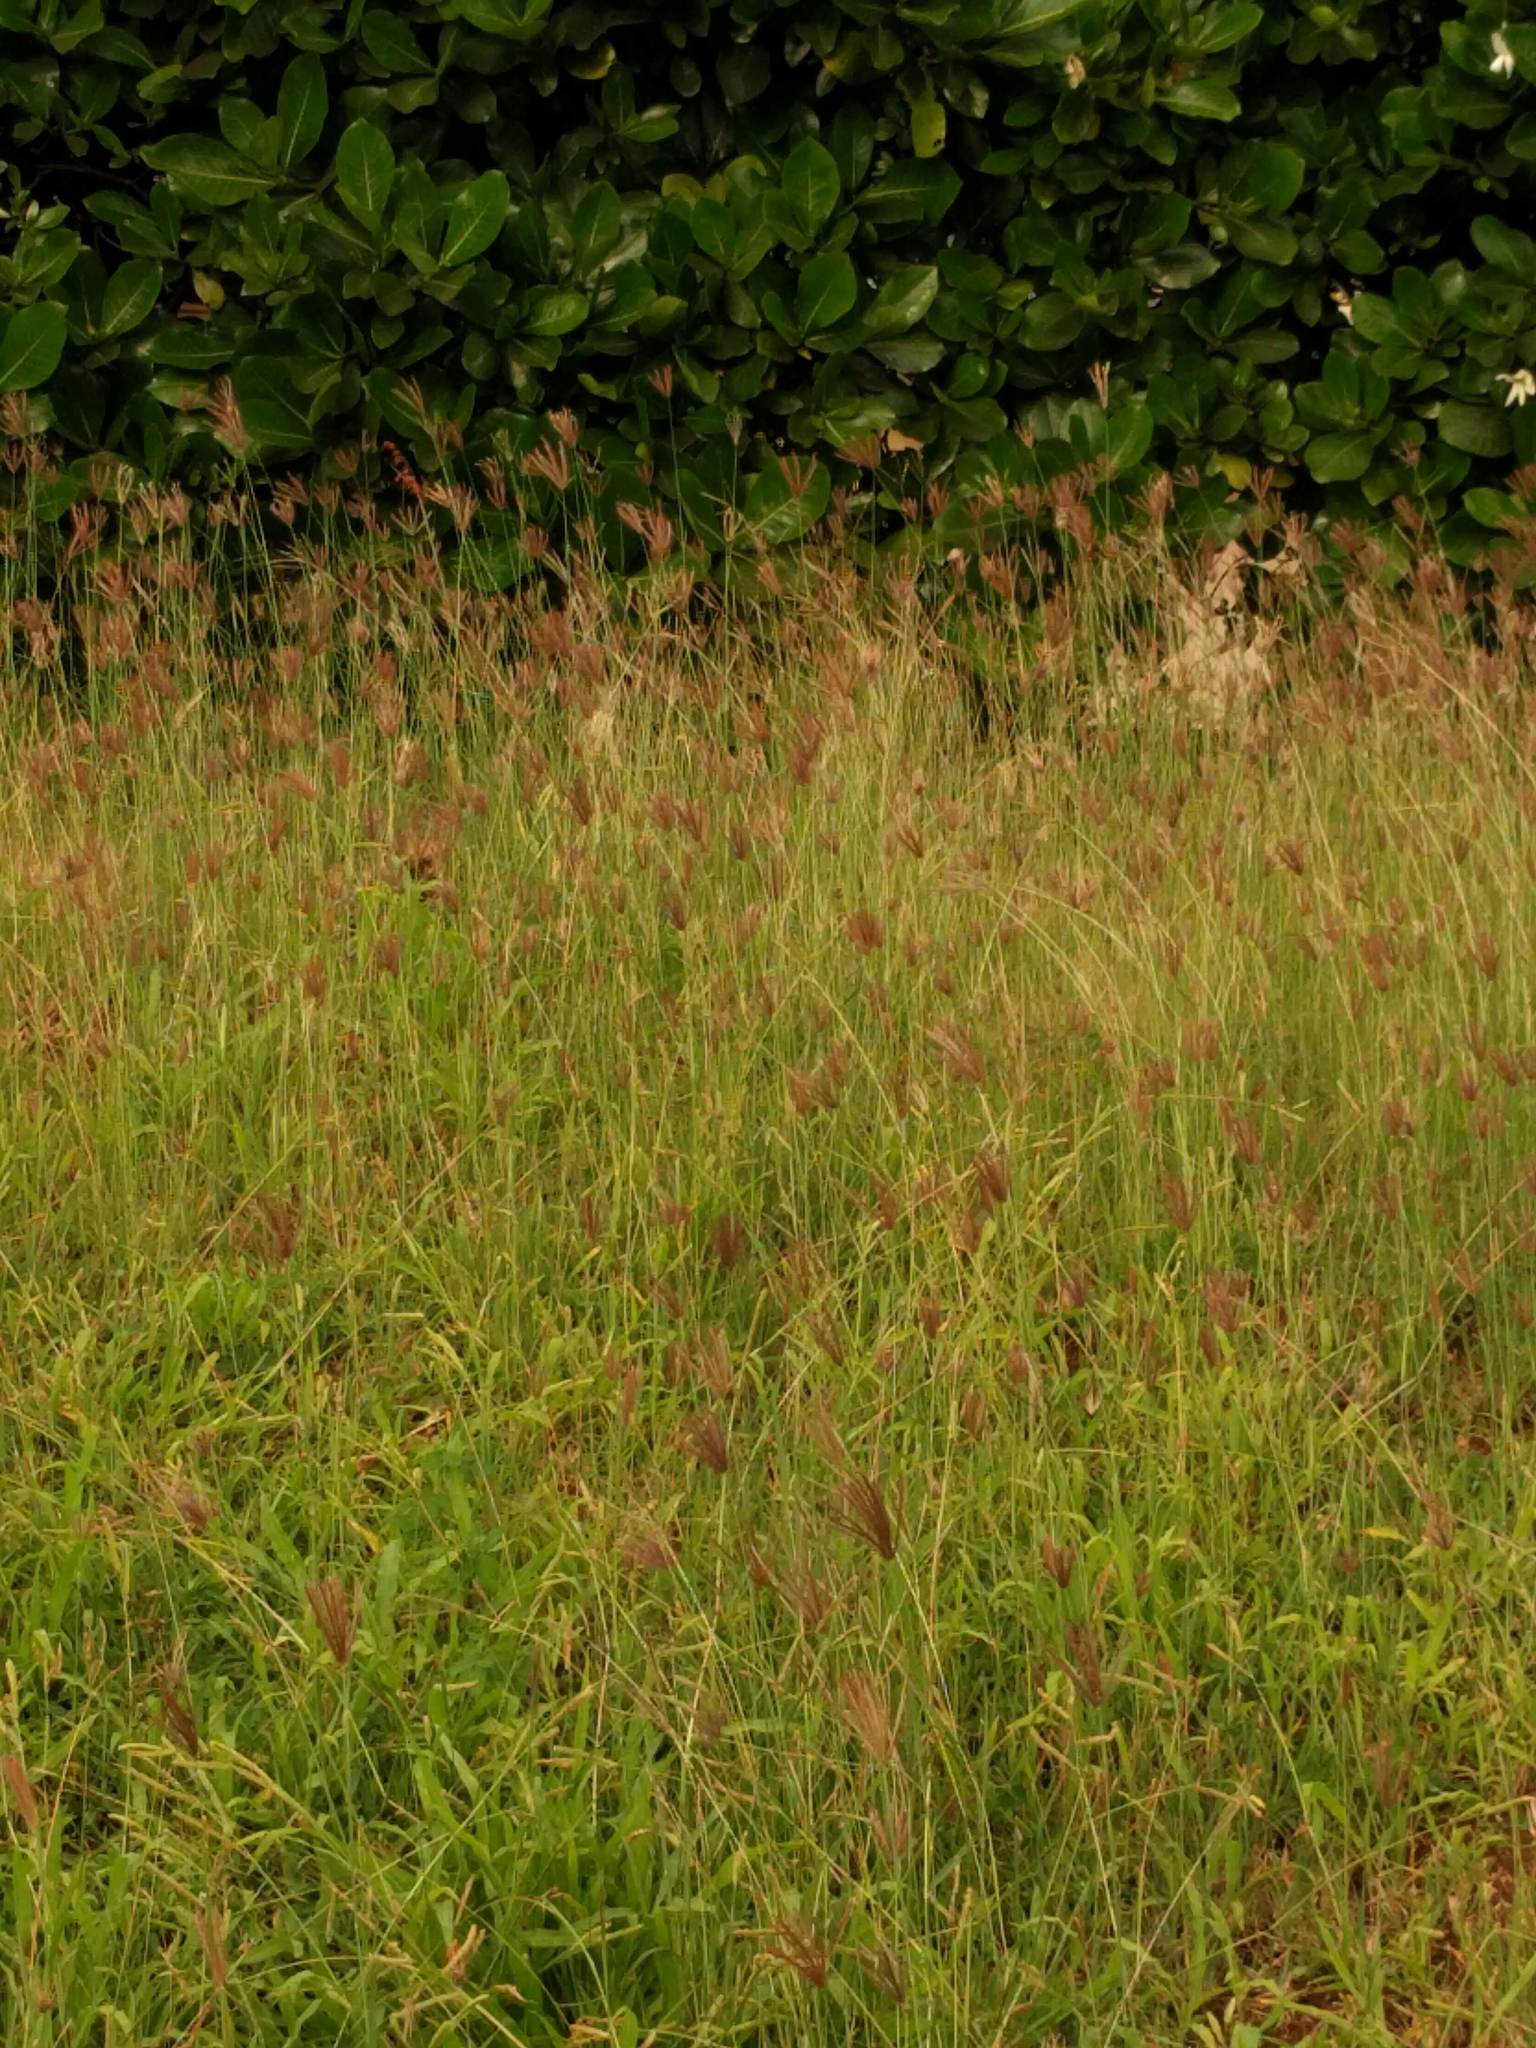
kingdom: Plantae
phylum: Tracheophyta
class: Liliopsida
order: Poales
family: Poaceae
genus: Chloris
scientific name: Chloris barbata
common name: Swollen fingergrass
